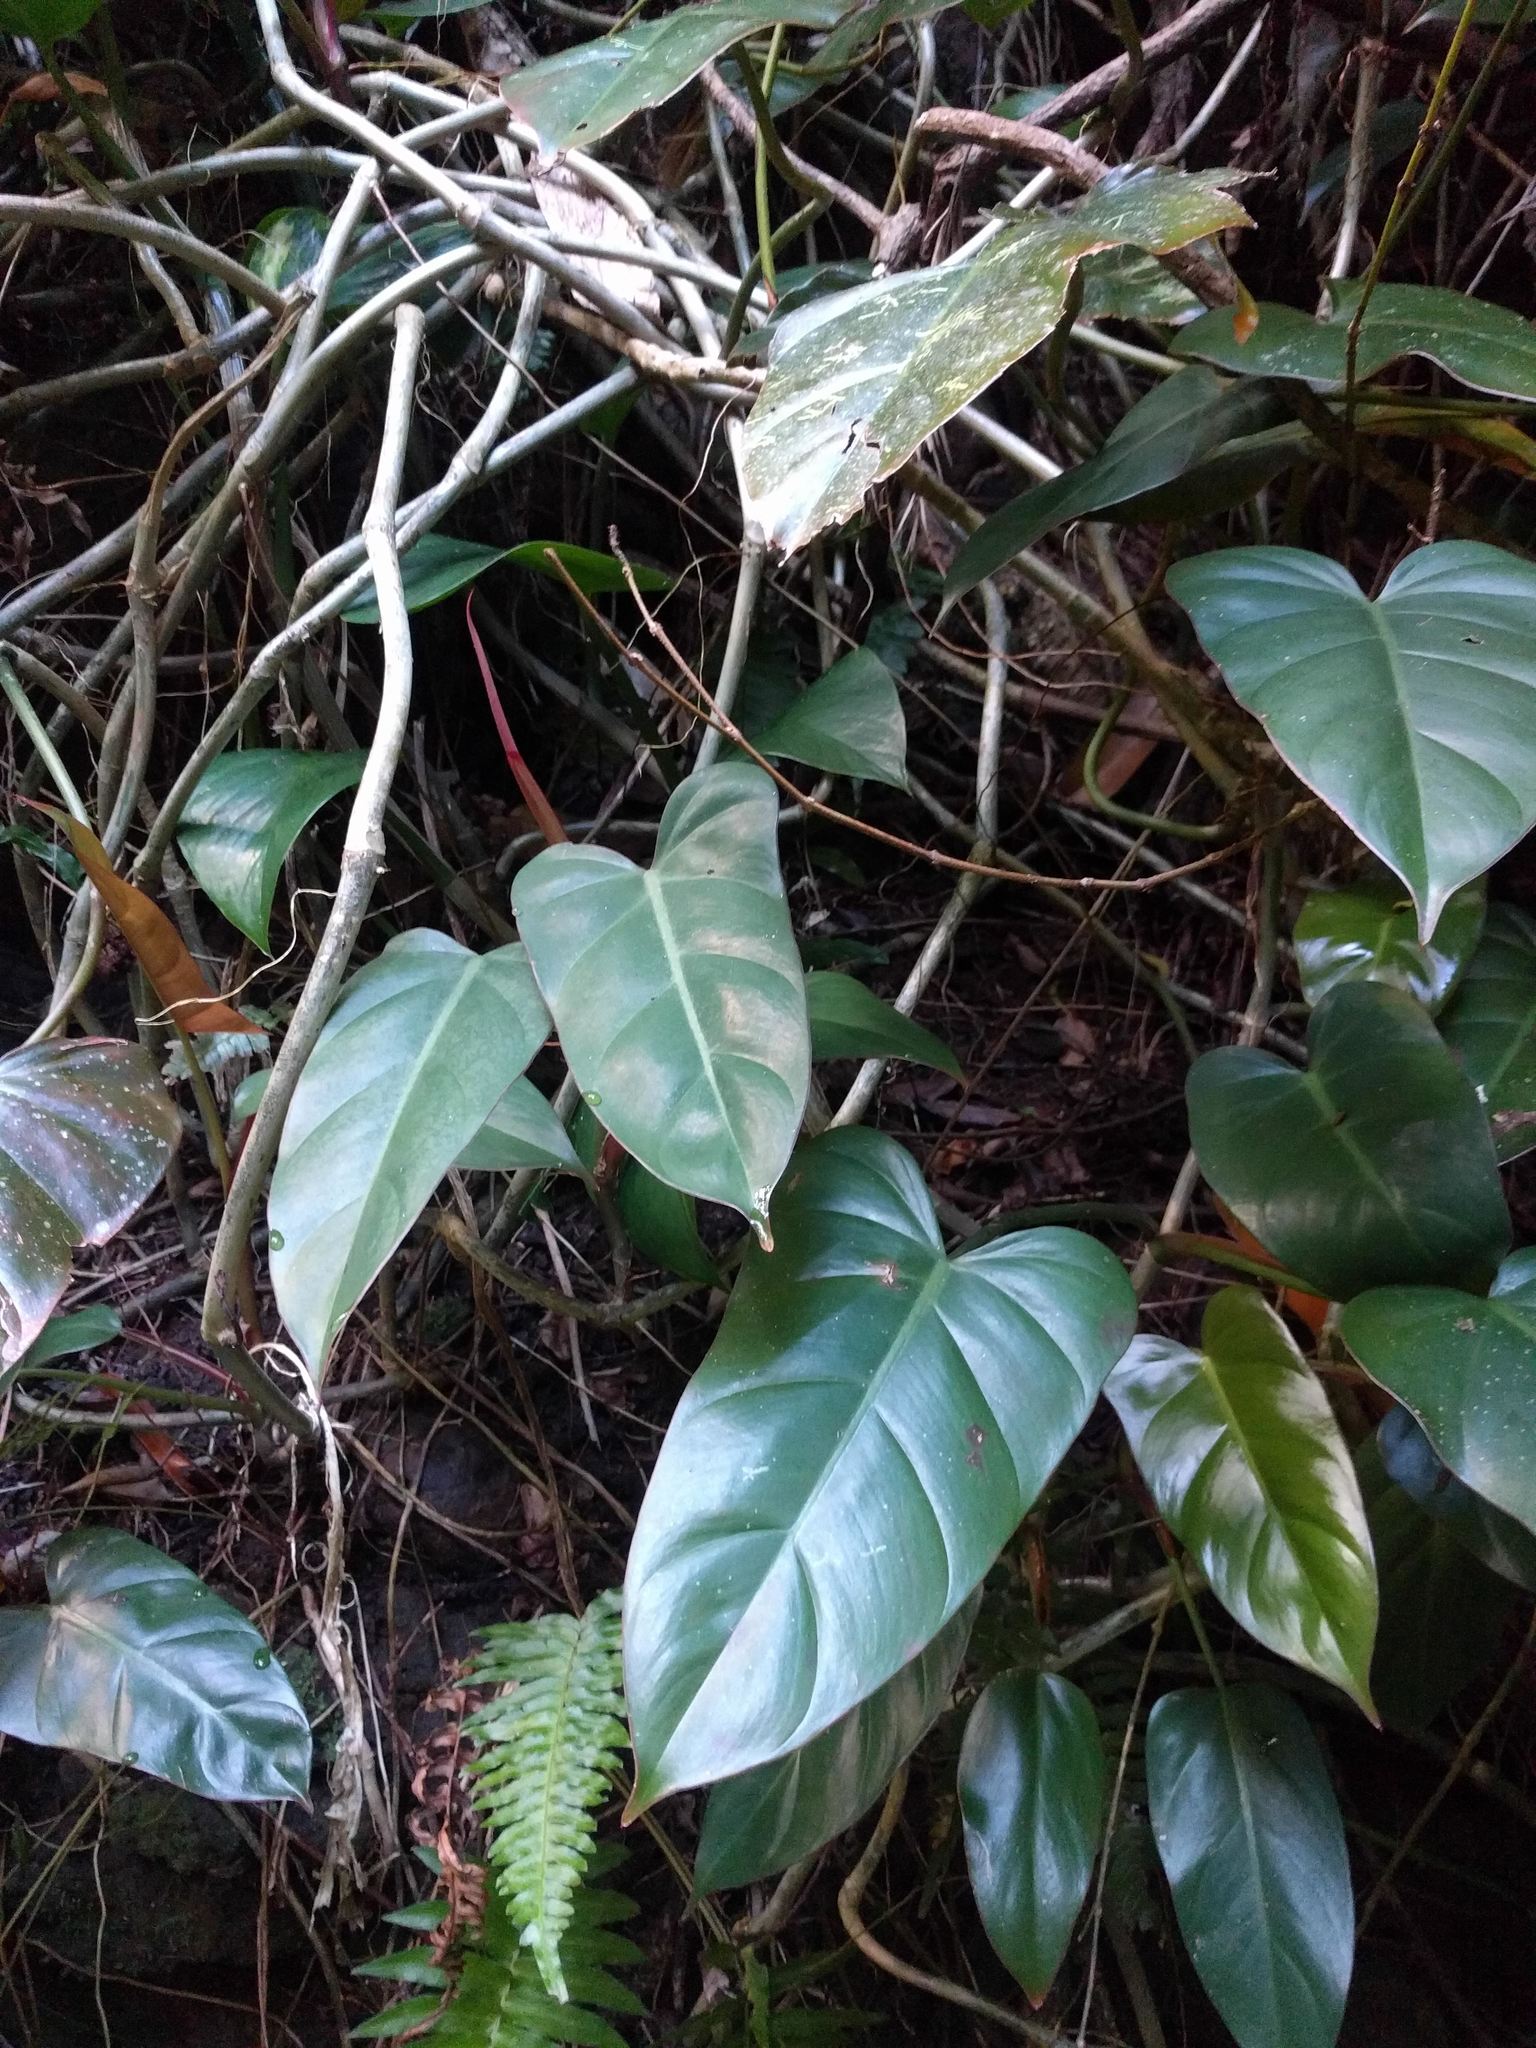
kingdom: Plantae
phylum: Tracheophyta
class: Liliopsida
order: Alismatales
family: Araceae
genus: Philodendron
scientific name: Philodendron erubescens
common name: Philodendron
